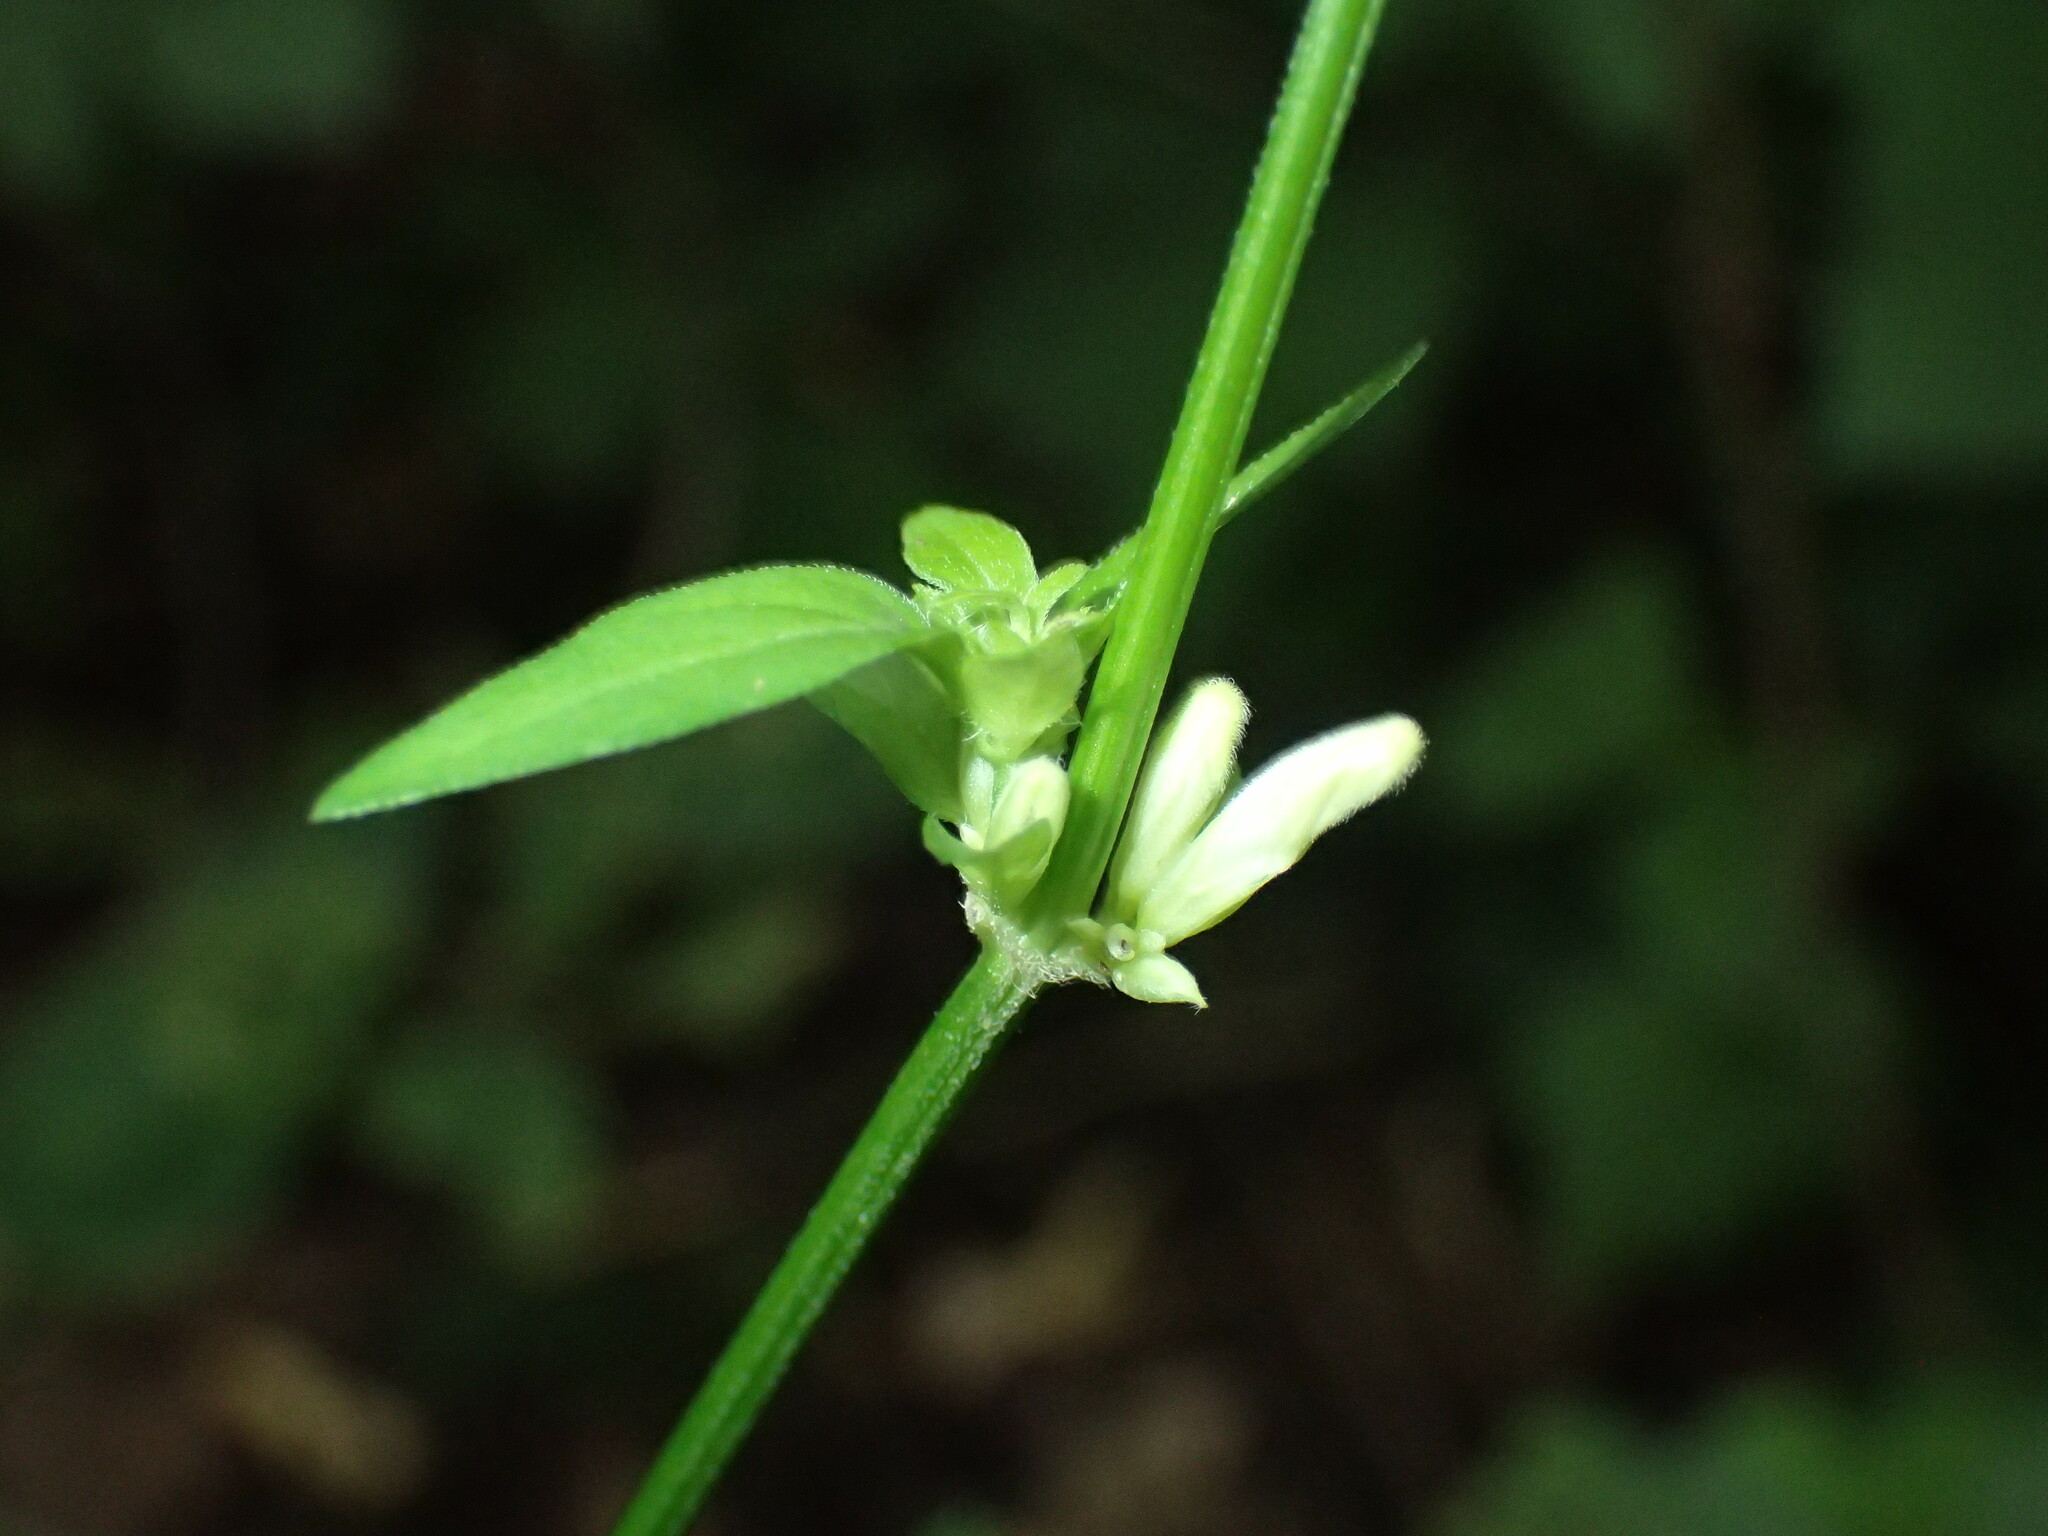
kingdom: Plantae
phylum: Tracheophyta
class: Magnoliopsida
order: Lamiales
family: Acanthaceae
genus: Justicia
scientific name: Justicia striata
